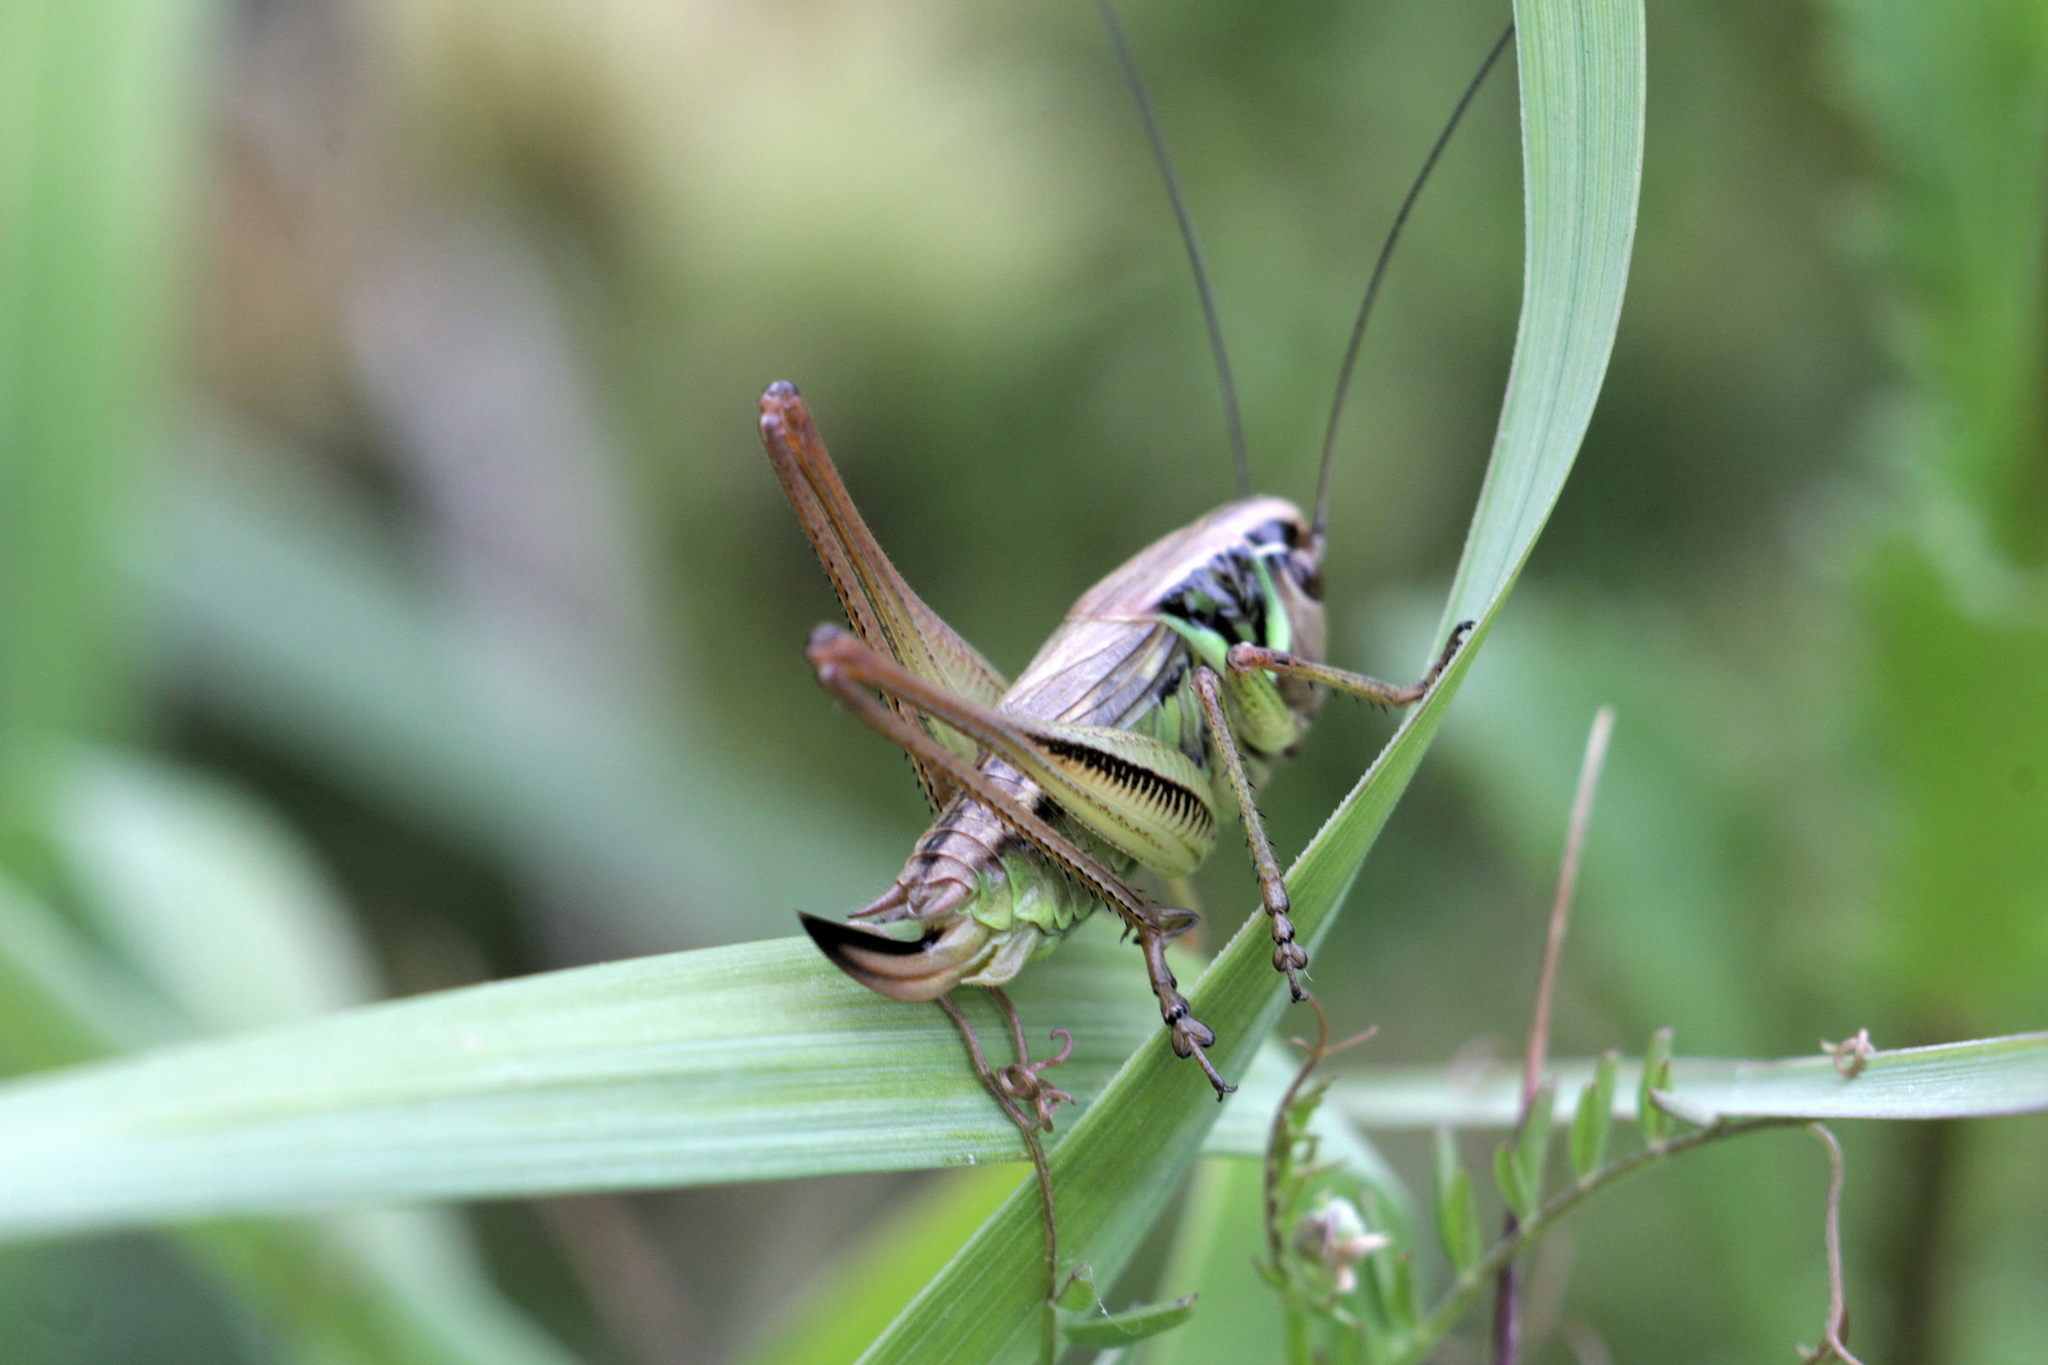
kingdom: Animalia
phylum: Arthropoda
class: Insecta
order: Orthoptera
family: Tettigoniidae
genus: Roeseliana
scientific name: Roeseliana roeselii
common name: Roesel's bush cricket
